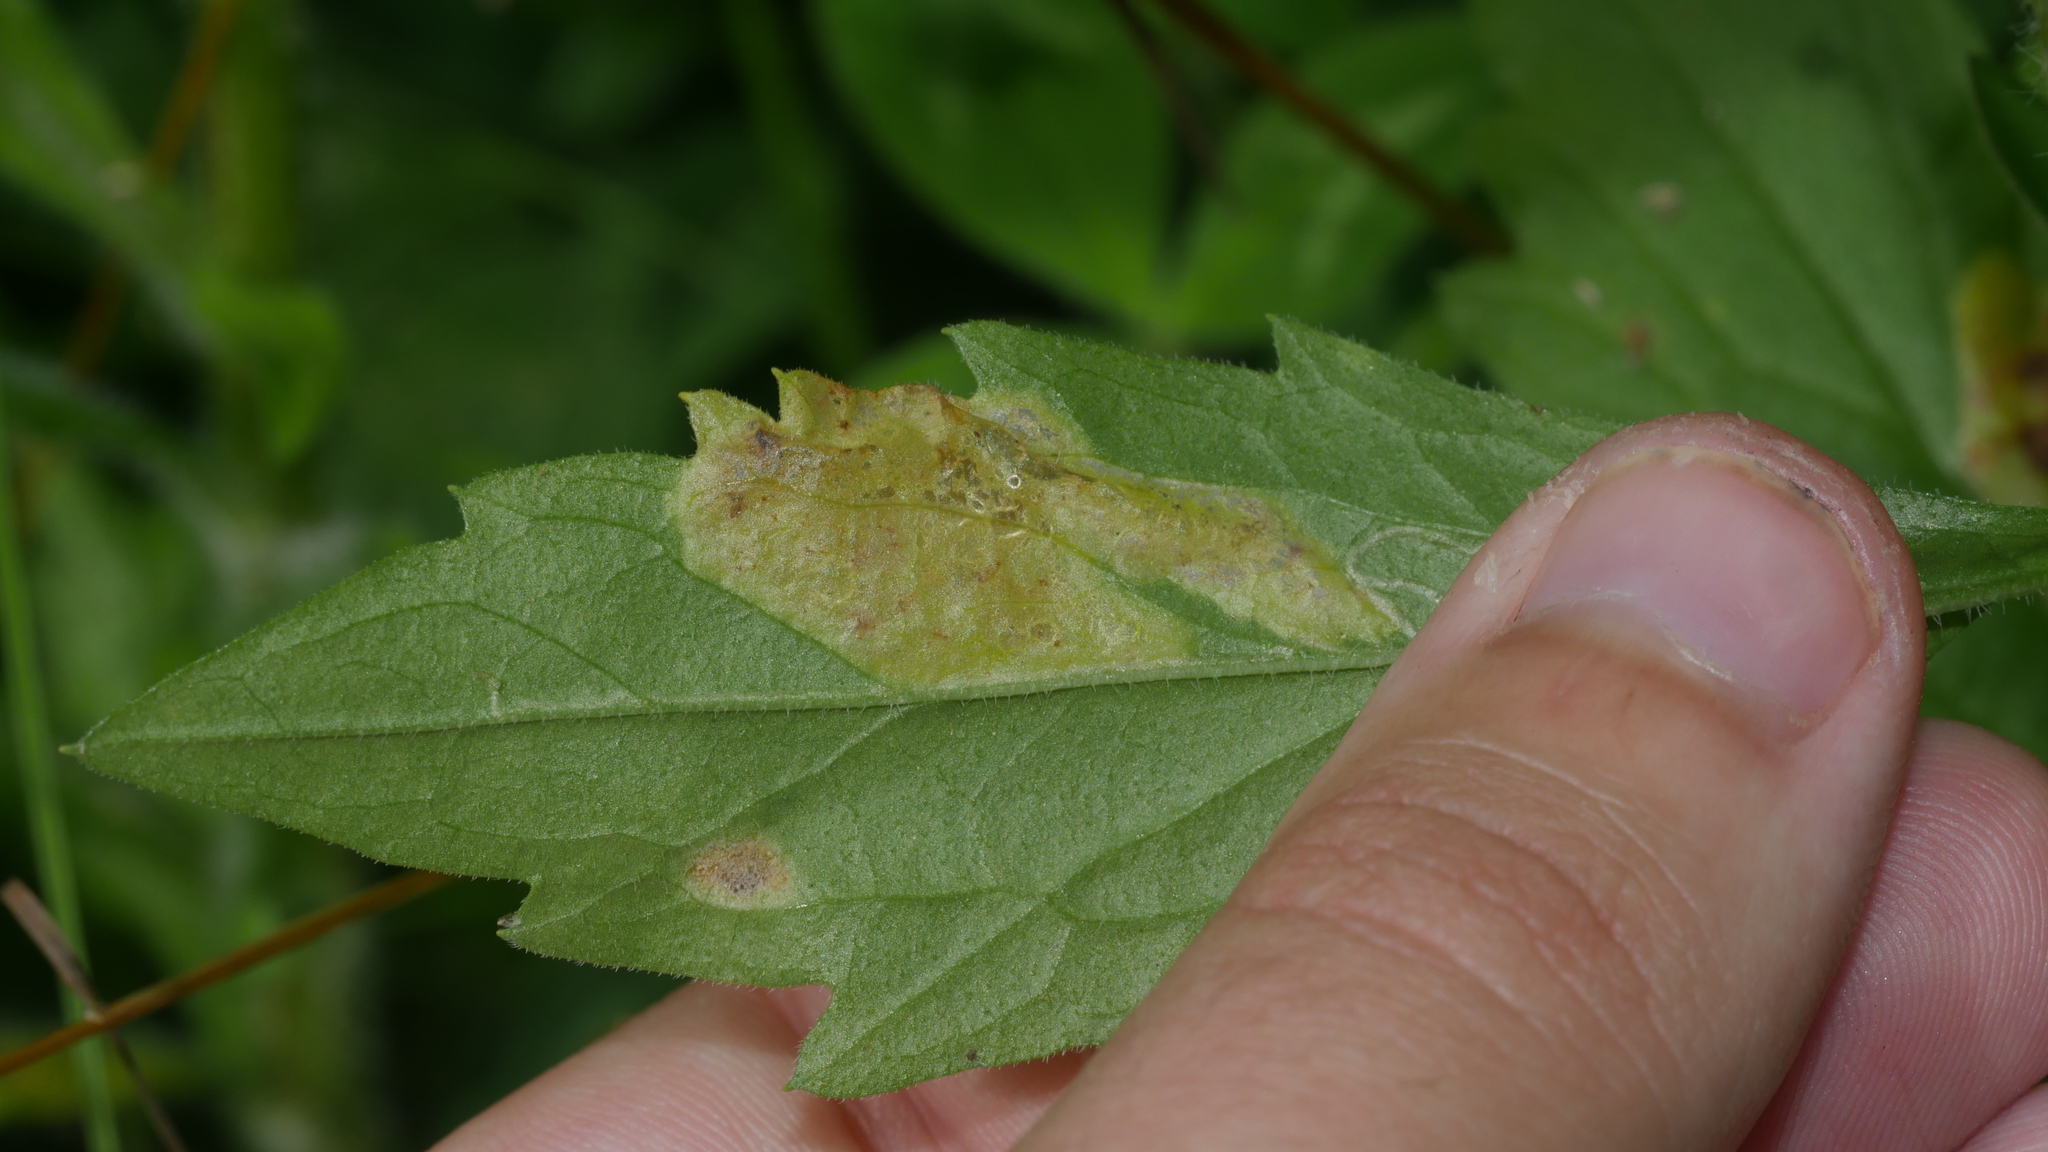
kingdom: Animalia
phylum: Arthropoda
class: Insecta
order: Lepidoptera
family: Gracillariidae
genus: Parectopa
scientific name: Parectopa plantaginisella
